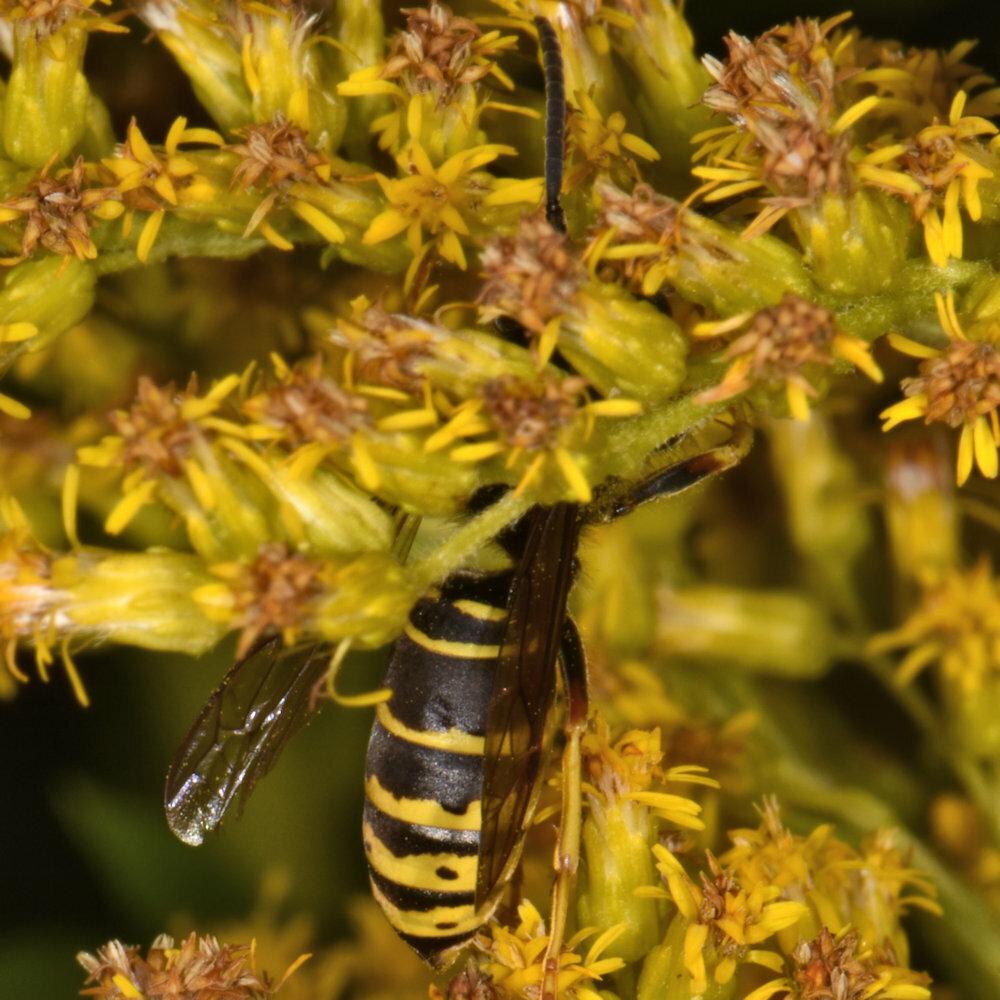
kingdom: Animalia
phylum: Arthropoda
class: Insecta
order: Hymenoptera
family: Vespidae
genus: Vespula
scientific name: Vespula vidua
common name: Widow yellowjacket
